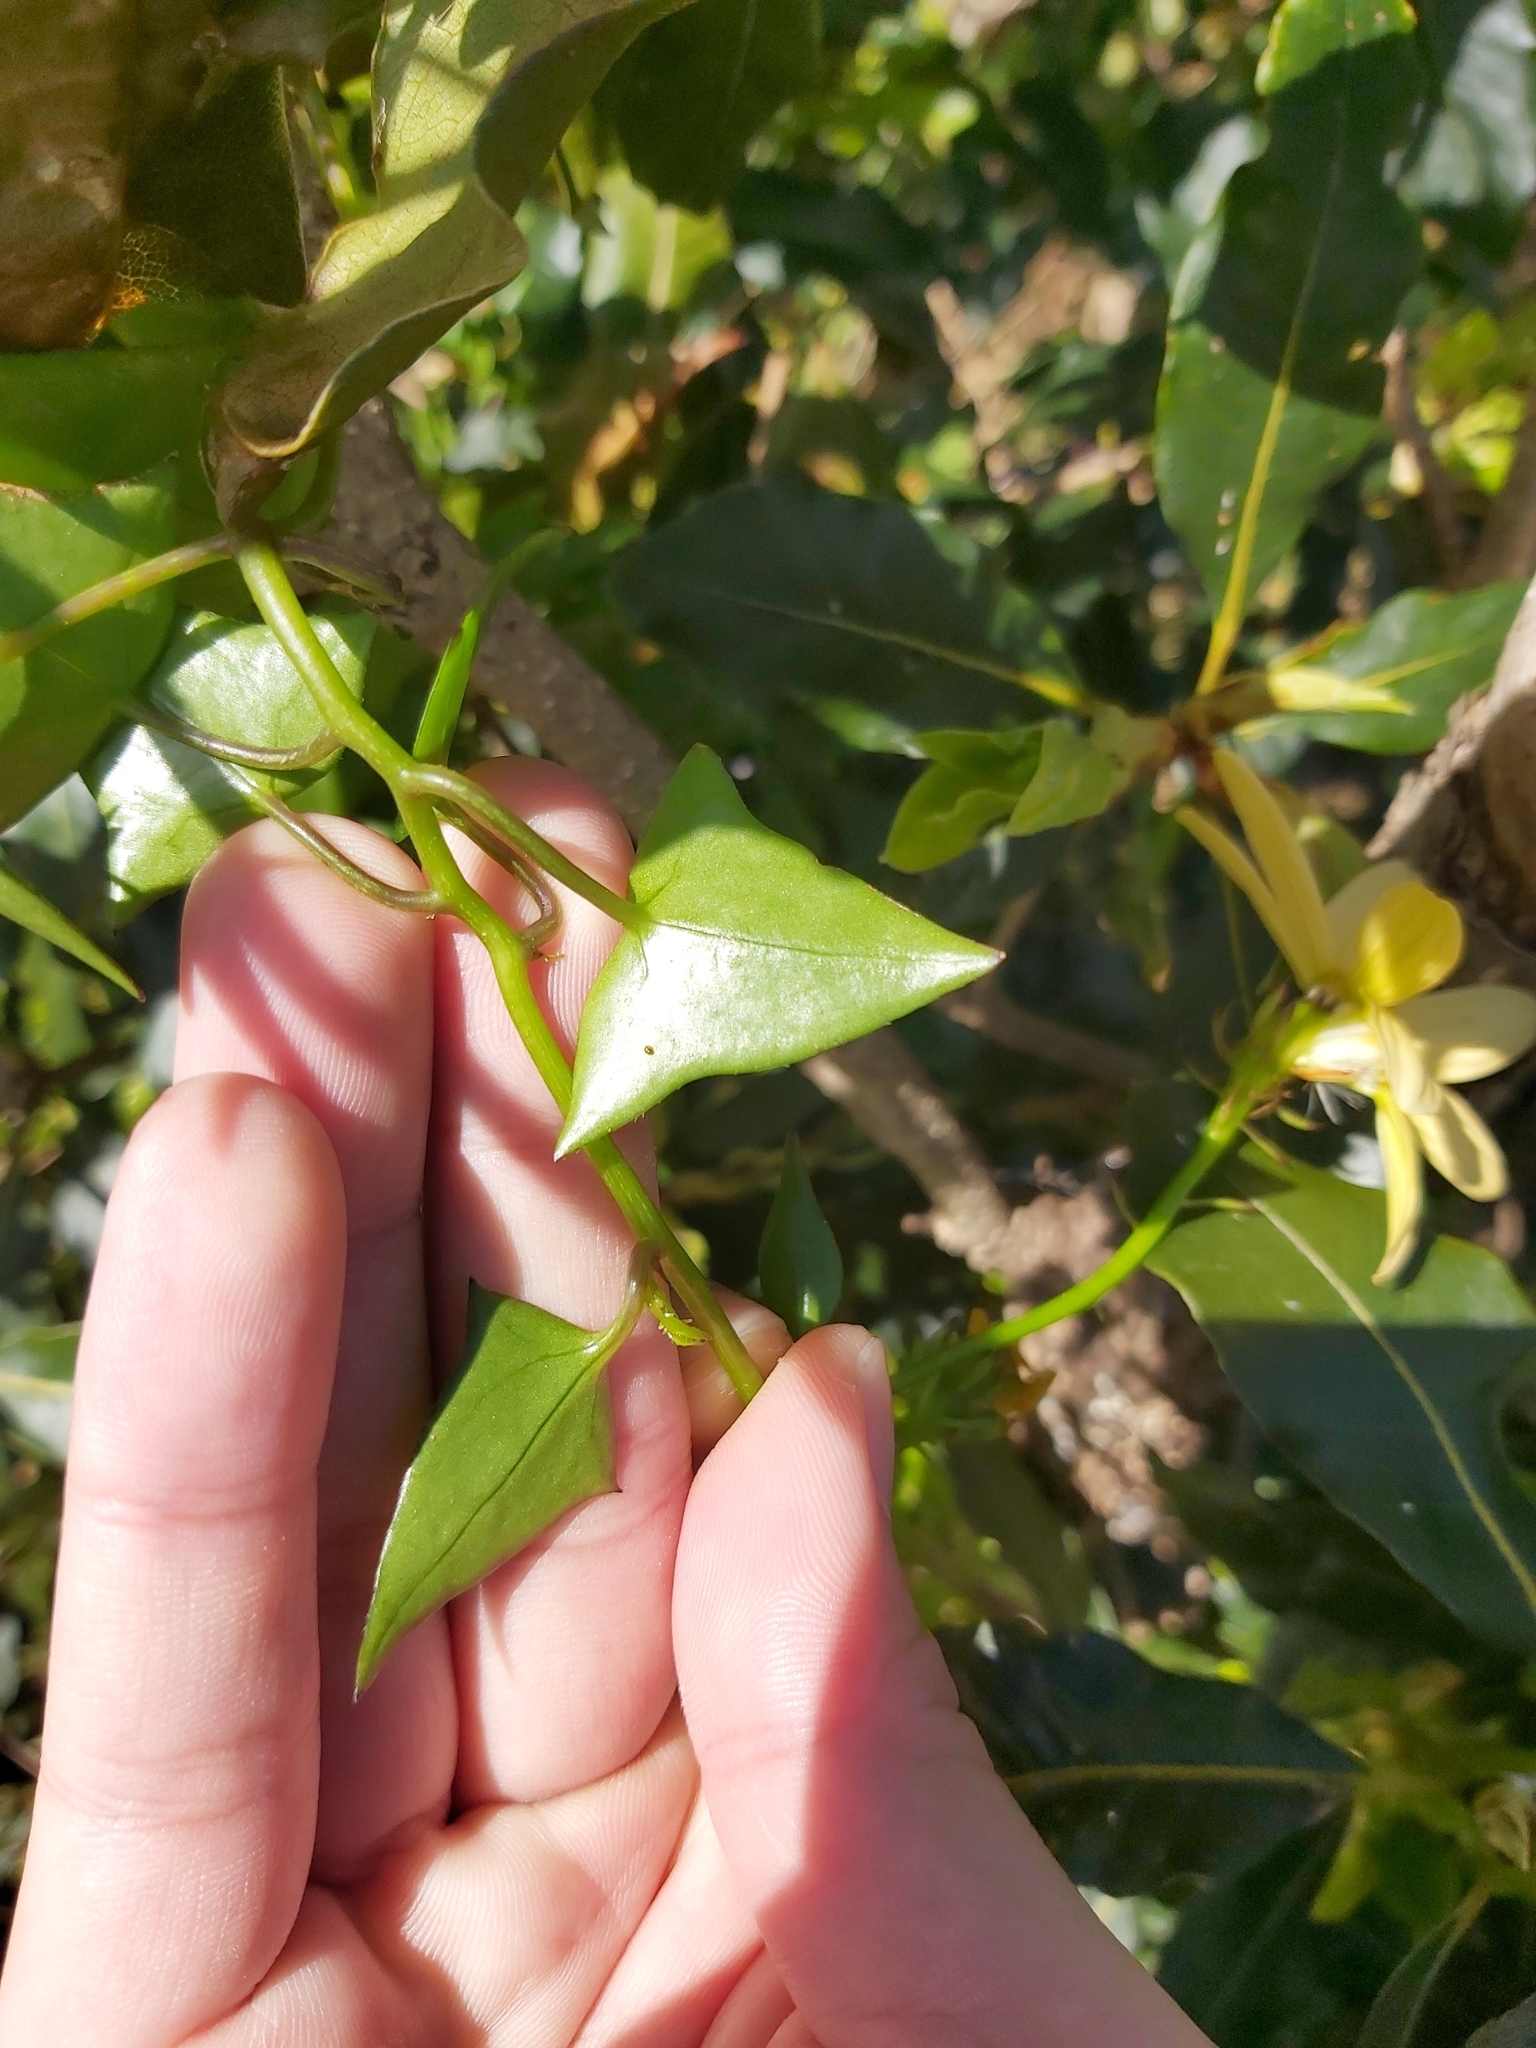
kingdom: Plantae
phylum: Tracheophyta
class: Magnoliopsida
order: Asterales
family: Asteraceae
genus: Senecio
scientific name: Senecio macroglossus
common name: Natal-ivy
